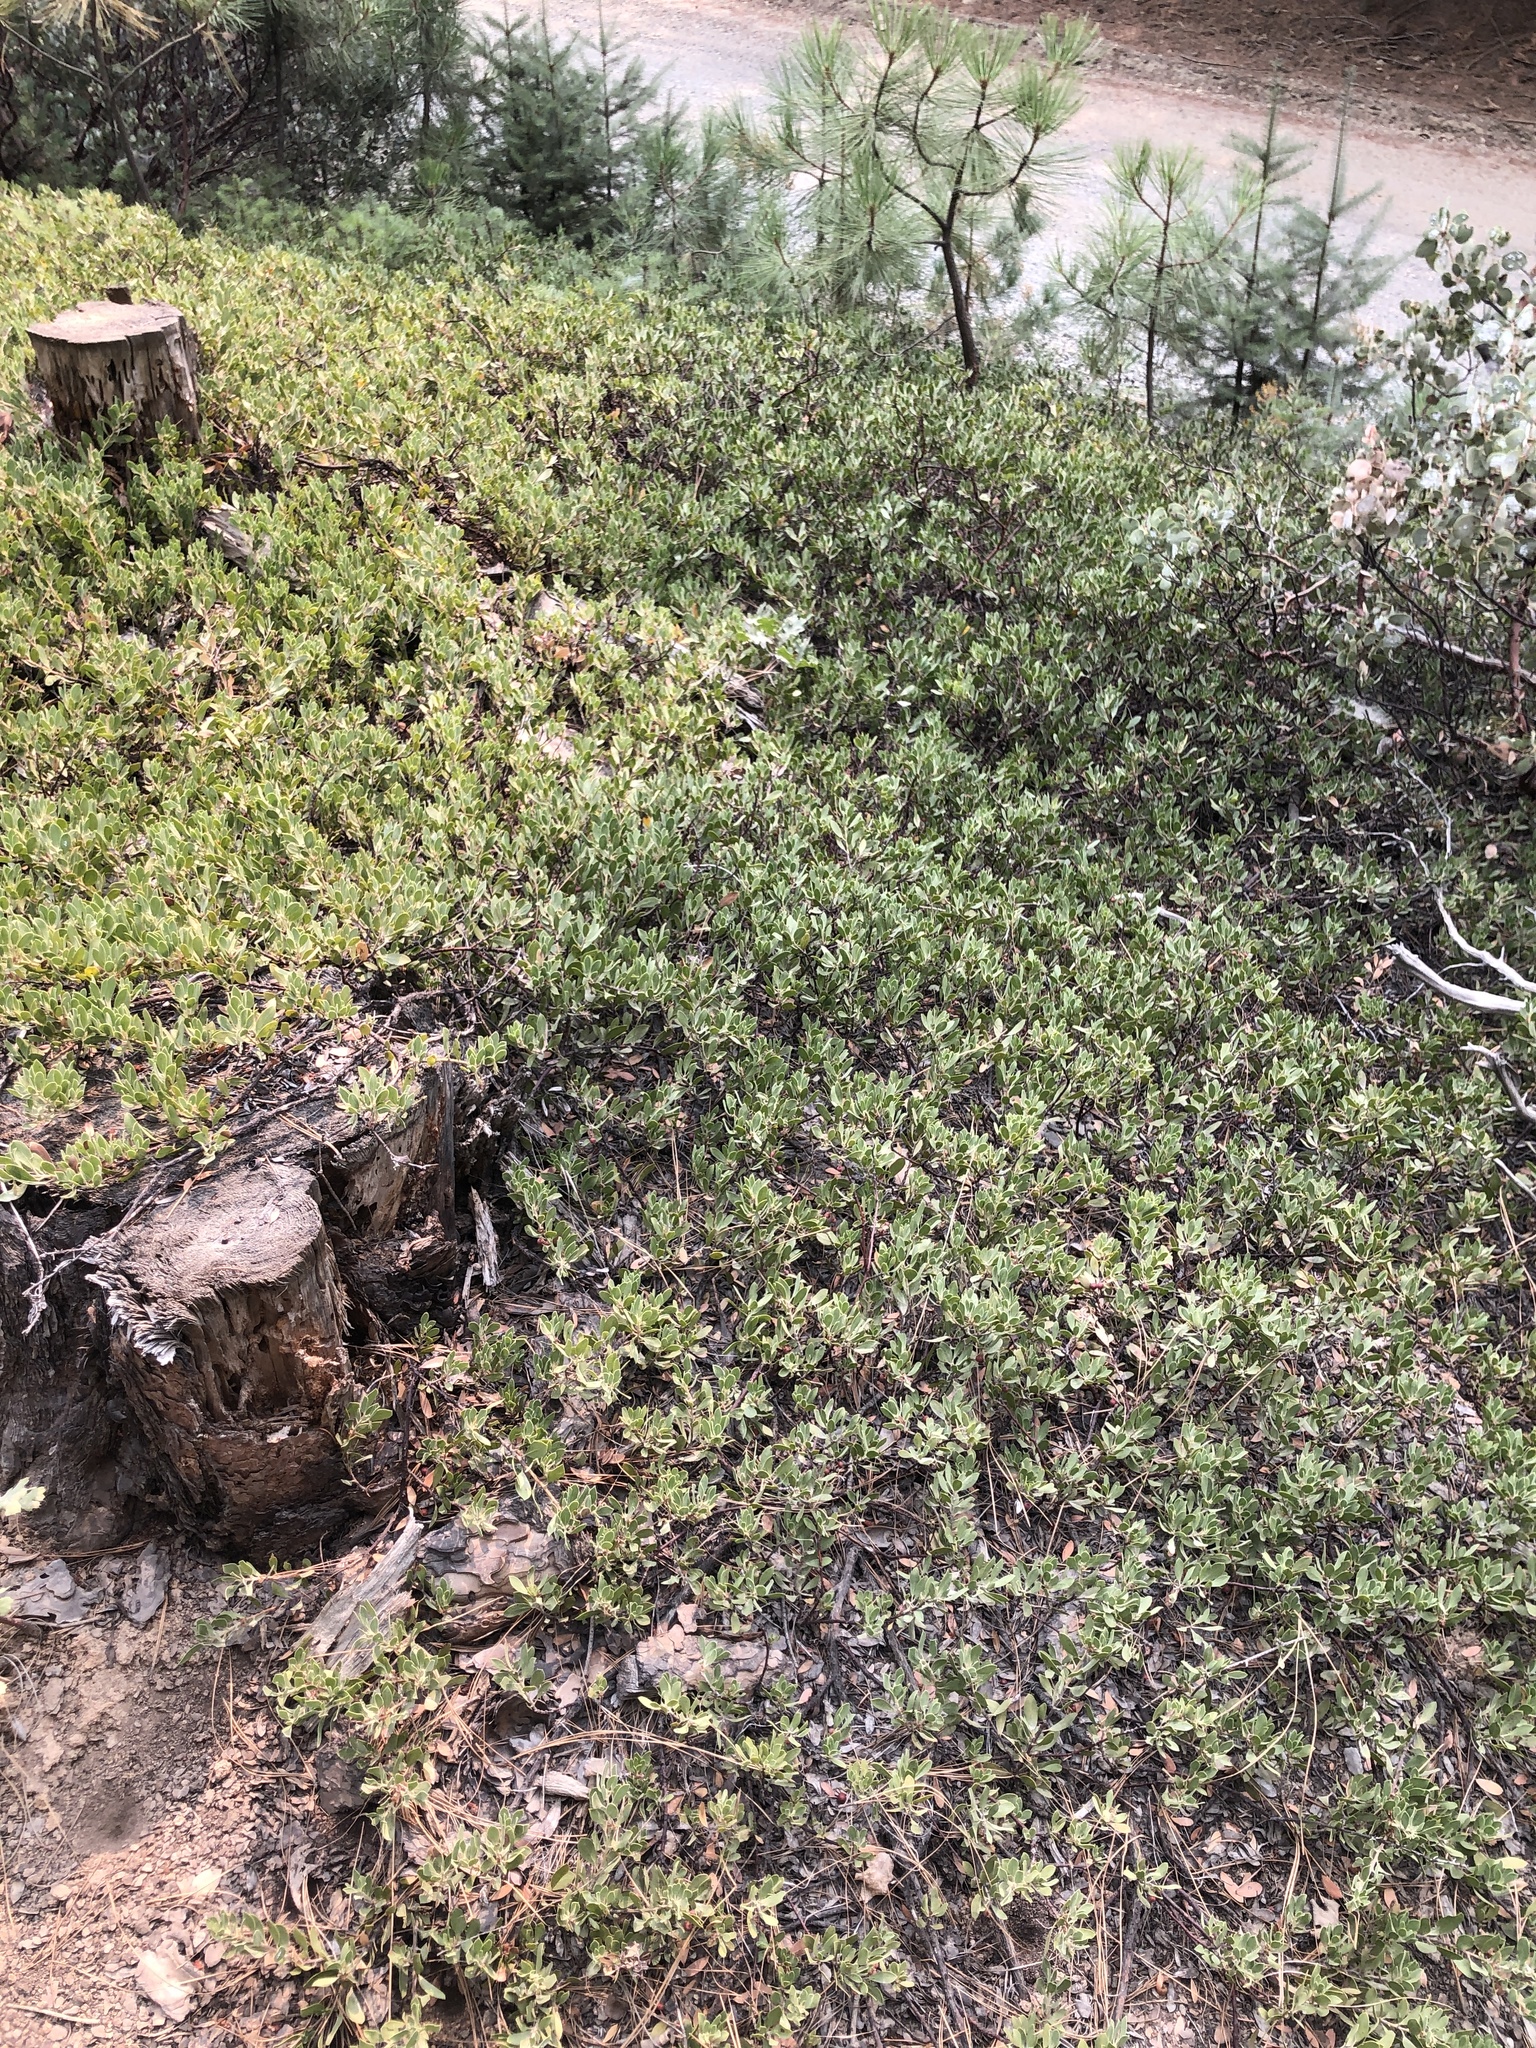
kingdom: Plantae
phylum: Tracheophyta
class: Magnoliopsida
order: Ericales
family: Ericaceae
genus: Arctostaphylos
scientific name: Arctostaphylos nevadensis
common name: Pinemat manzanita
